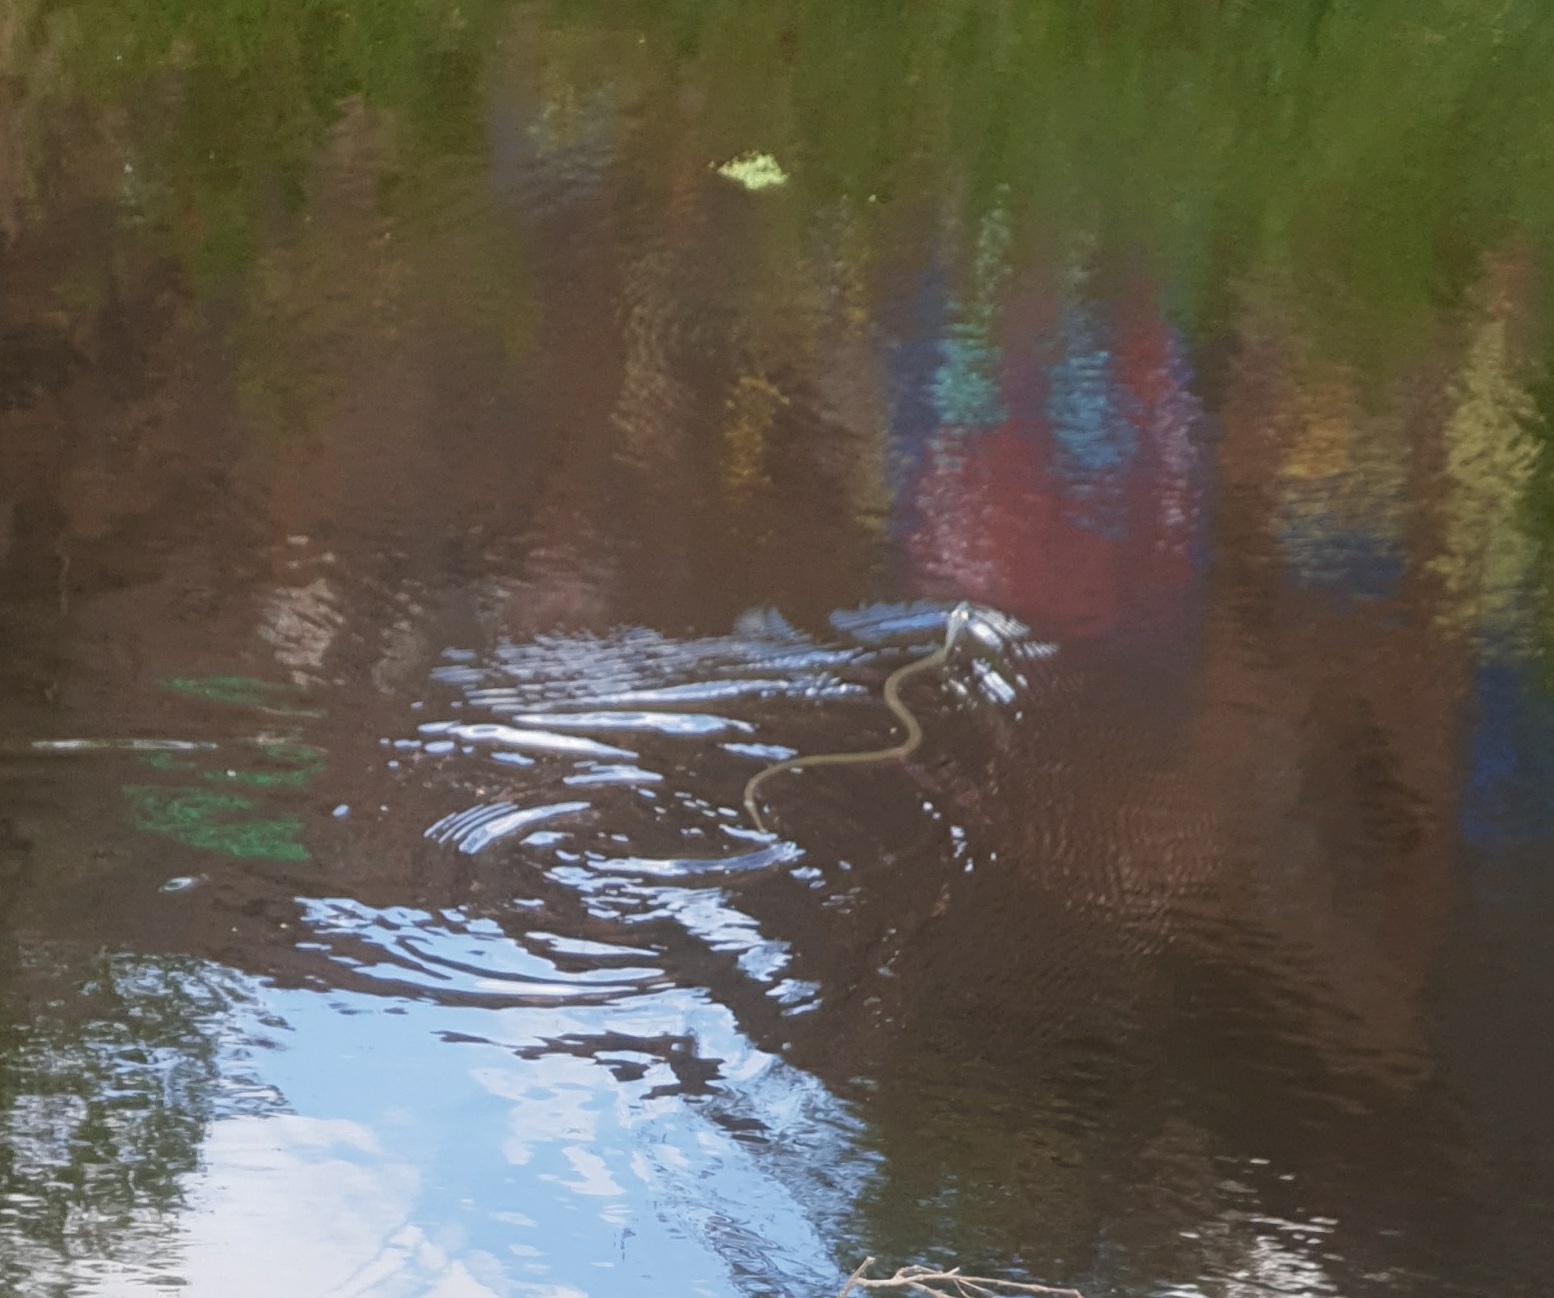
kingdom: Animalia
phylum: Chordata
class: Squamata
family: Colubridae
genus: Natrix
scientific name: Natrix natrix
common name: Grass snake
